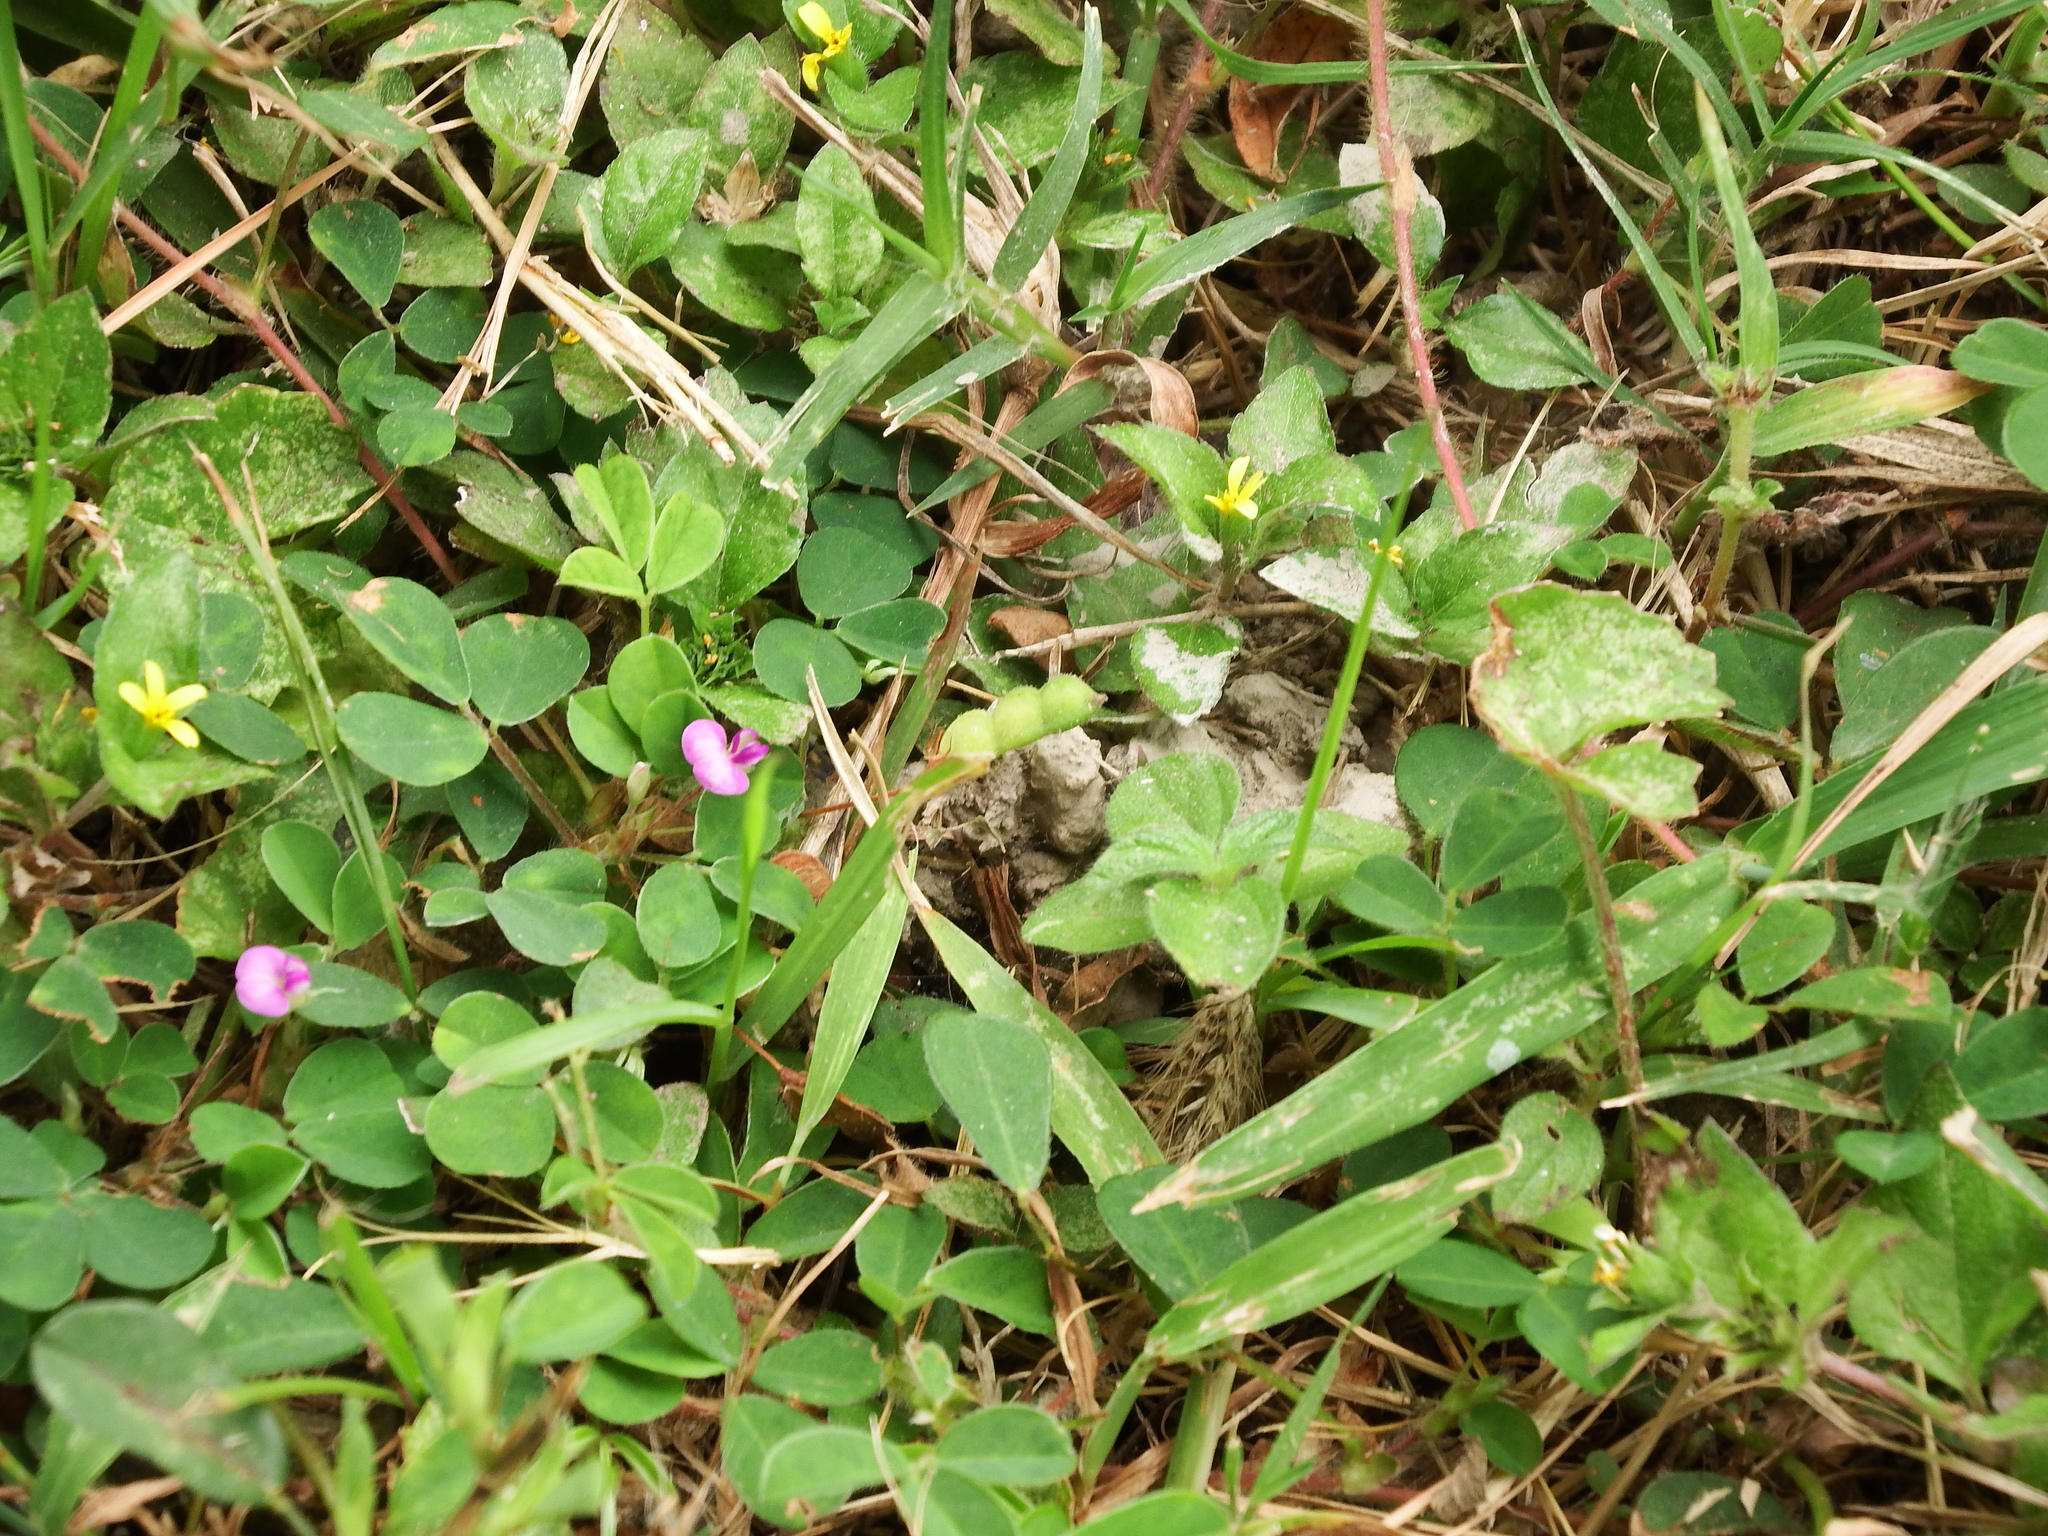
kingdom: Plantae
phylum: Tracheophyta
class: Magnoliopsida
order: Fabales
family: Fabaceae
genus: Grona
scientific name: Grona heterophylla
